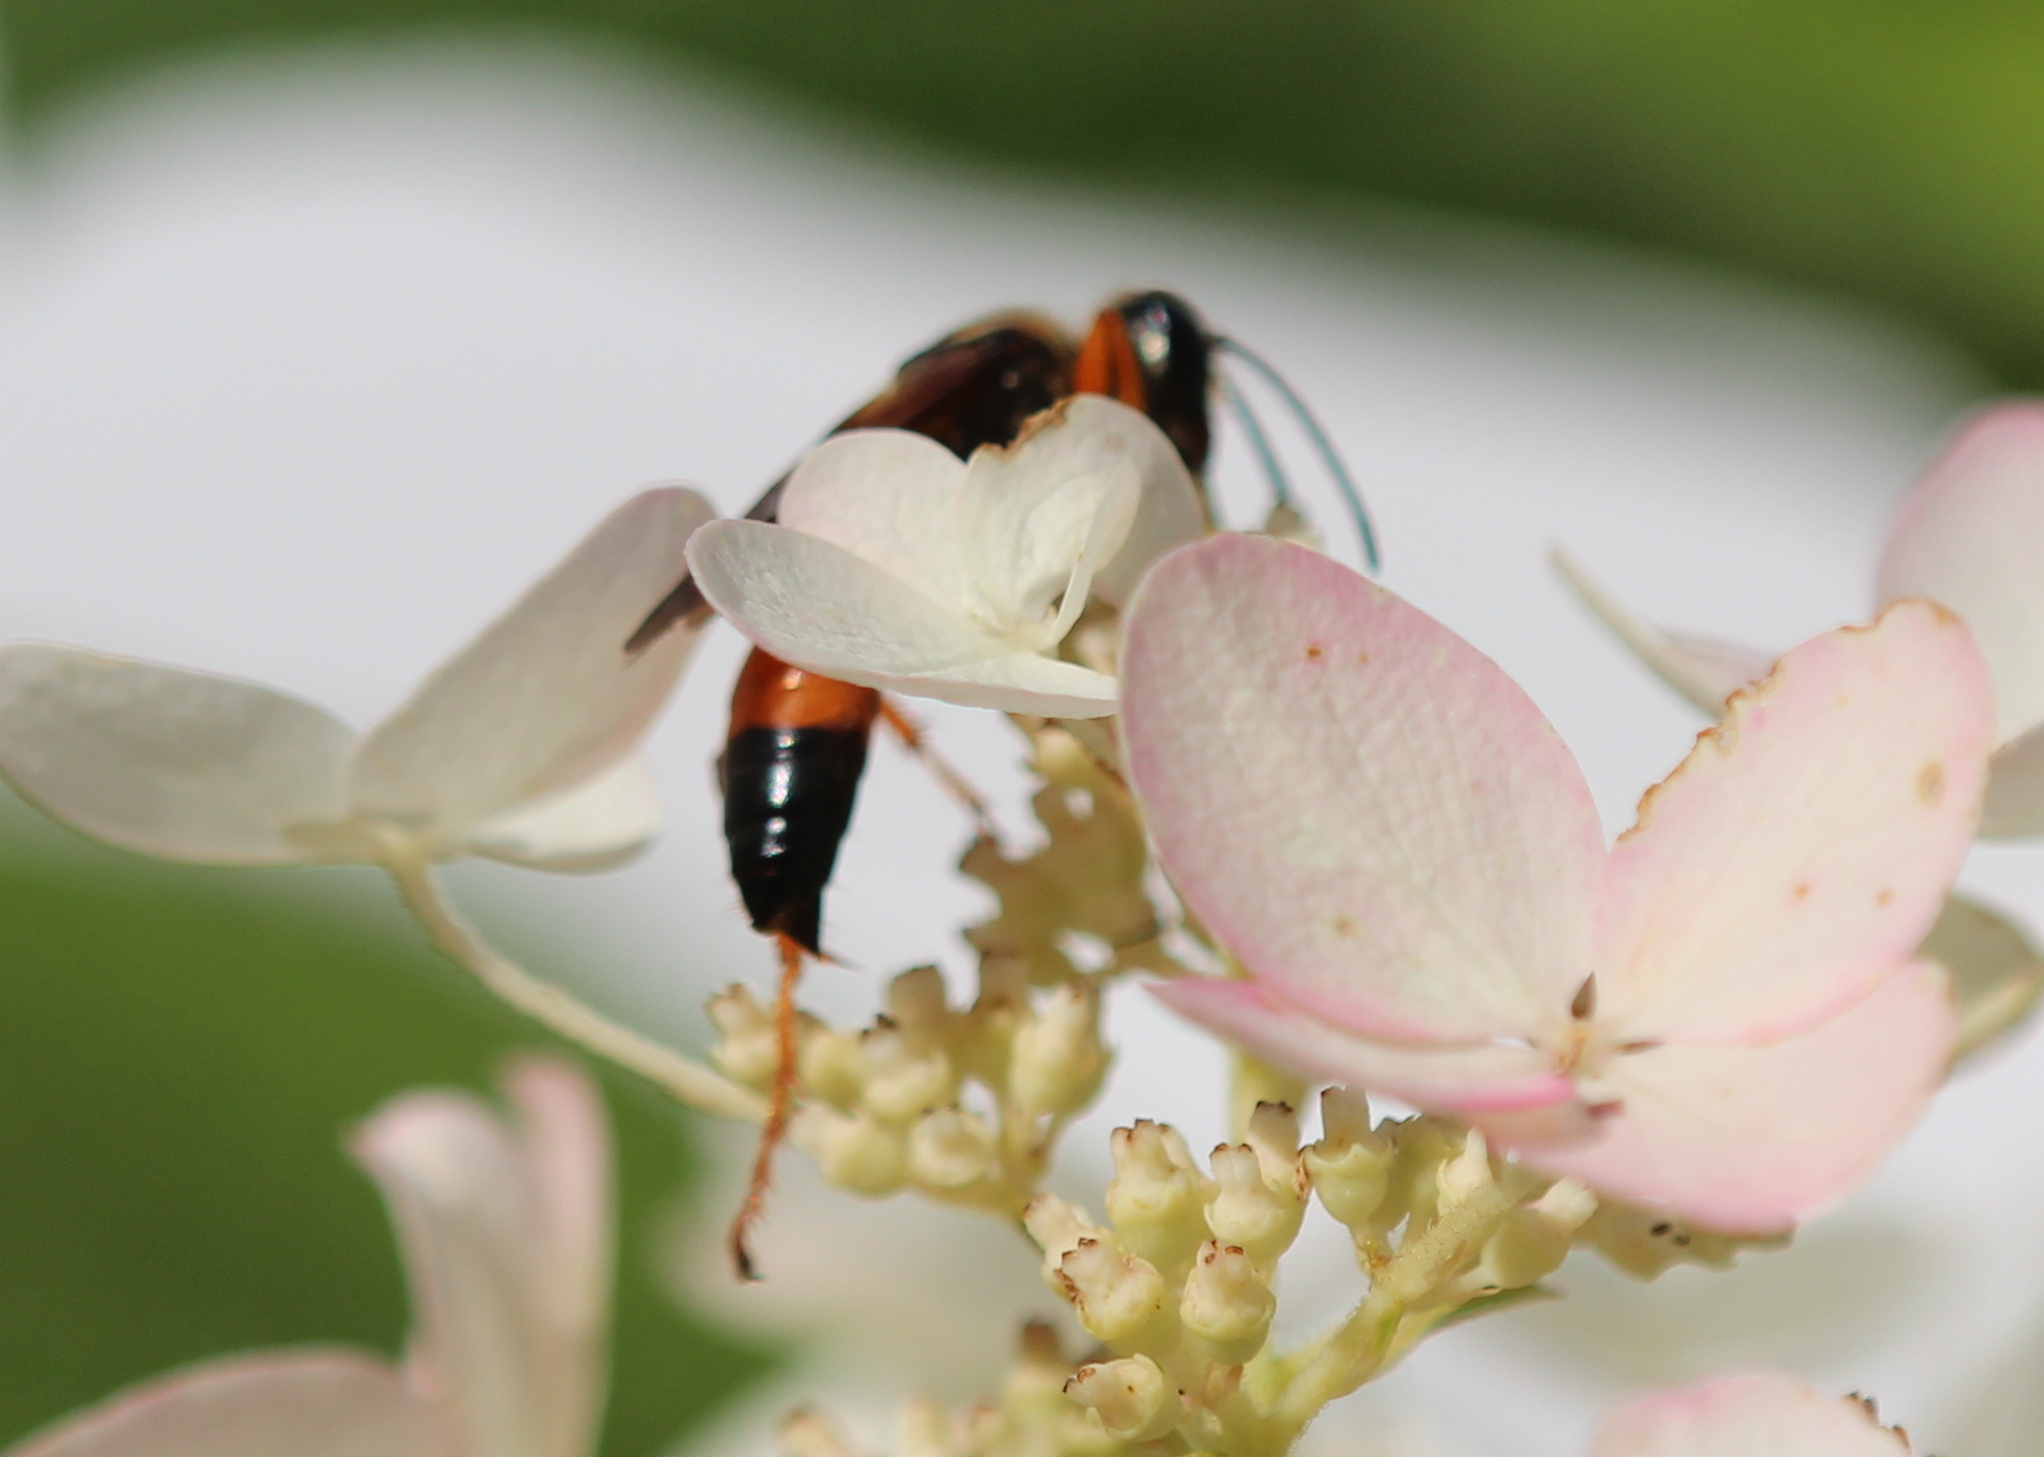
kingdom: Animalia
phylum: Arthropoda
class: Insecta
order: Hymenoptera
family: Sphecidae
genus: Sphex
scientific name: Sphex ichneumoneus
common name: Great golden digger wasp
